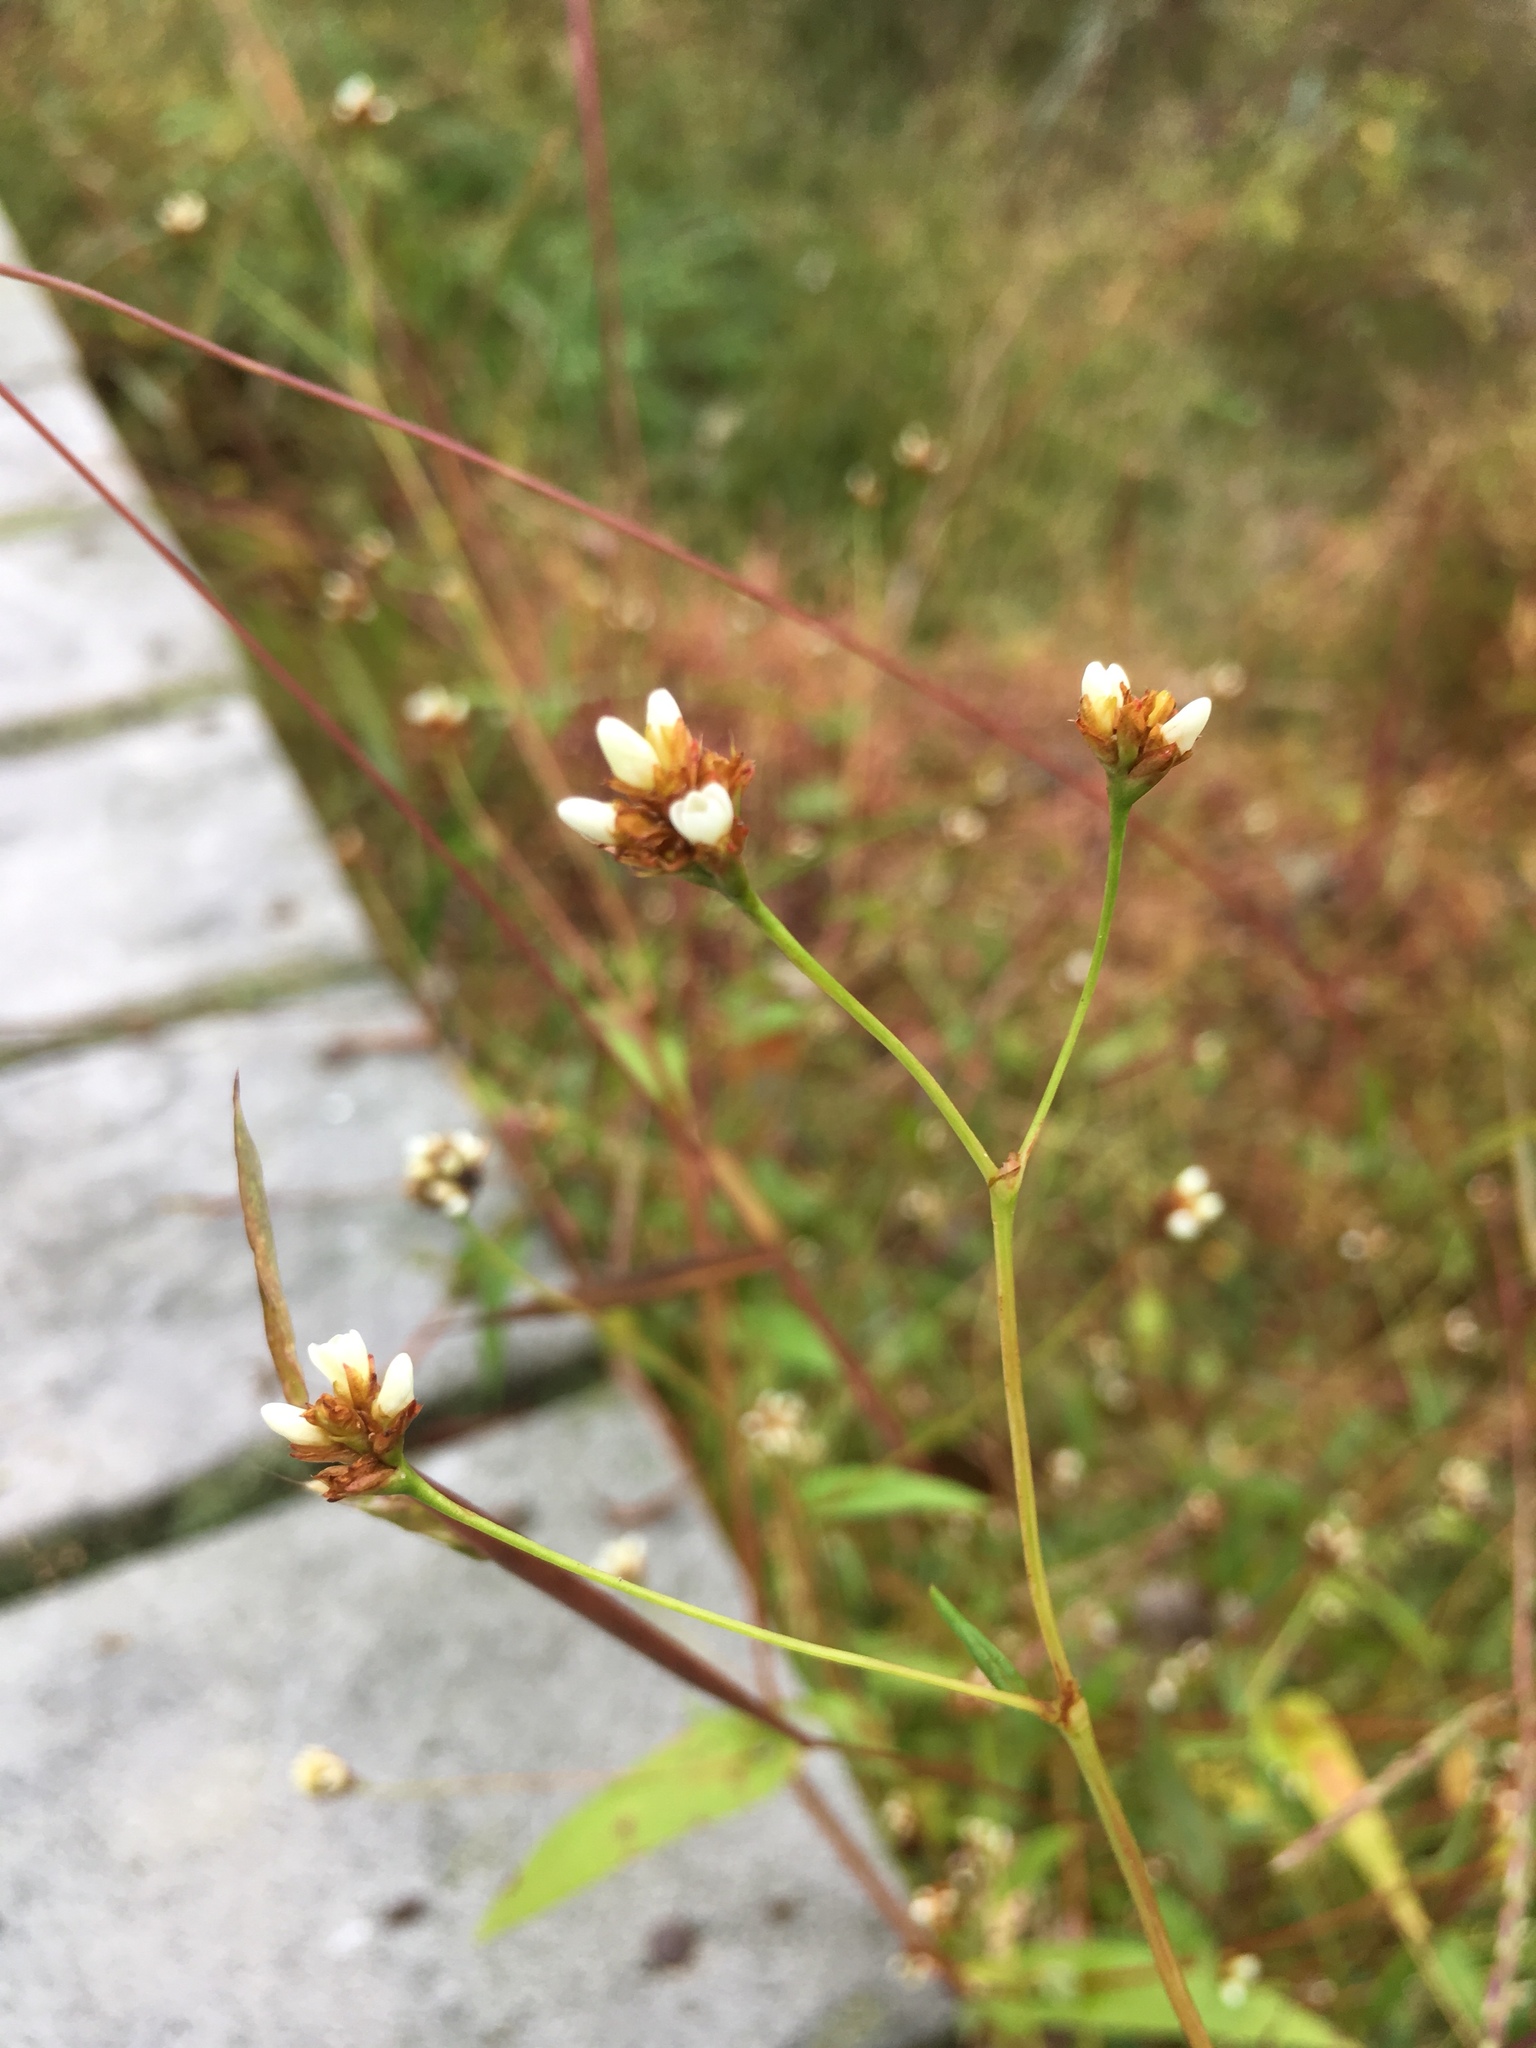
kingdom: Plantae
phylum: Tracheophyta
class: Magnoliopsida
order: Caryophyllales
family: Polygonaceae
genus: Persicaria
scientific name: Persicaria sagittata
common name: American tearthumb
